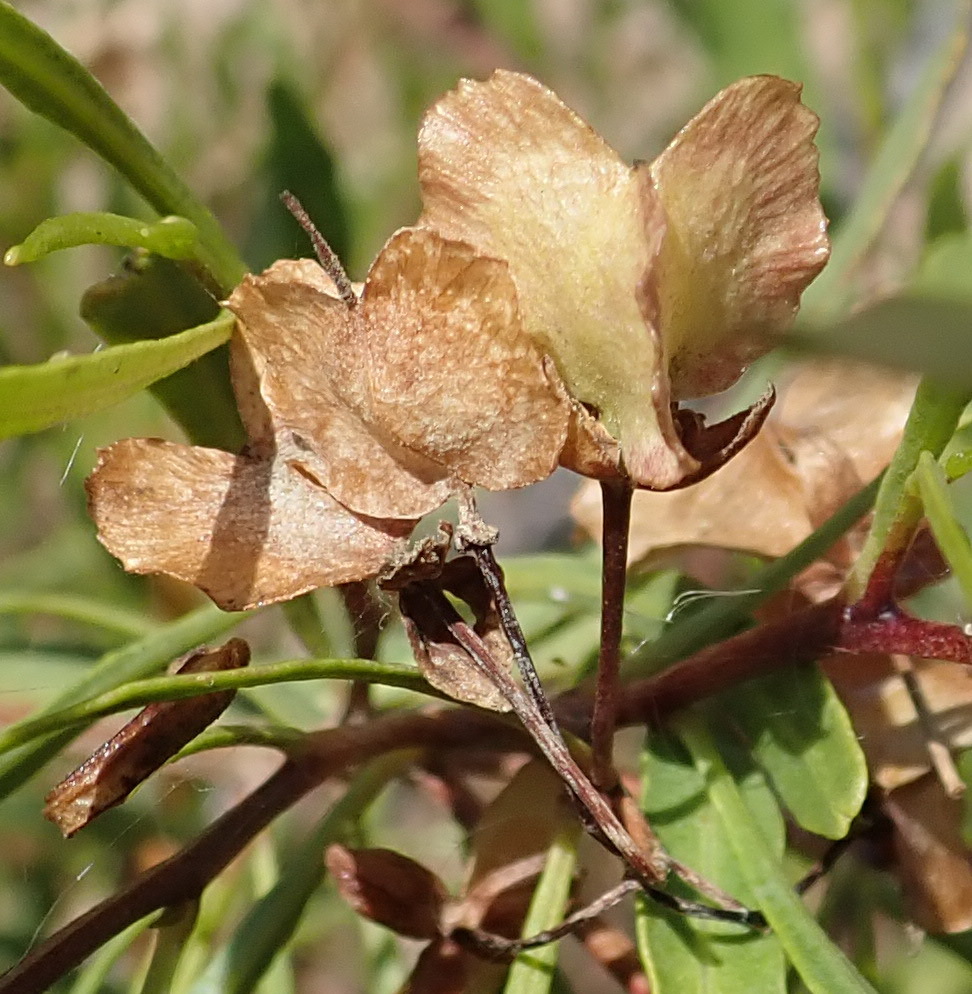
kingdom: Plantae
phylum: Tracheophyta
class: Magnoliopsida
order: Sapindales
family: Sapindaceae
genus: Dodonaea
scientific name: Dodonaea viscosa
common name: Hopbush
